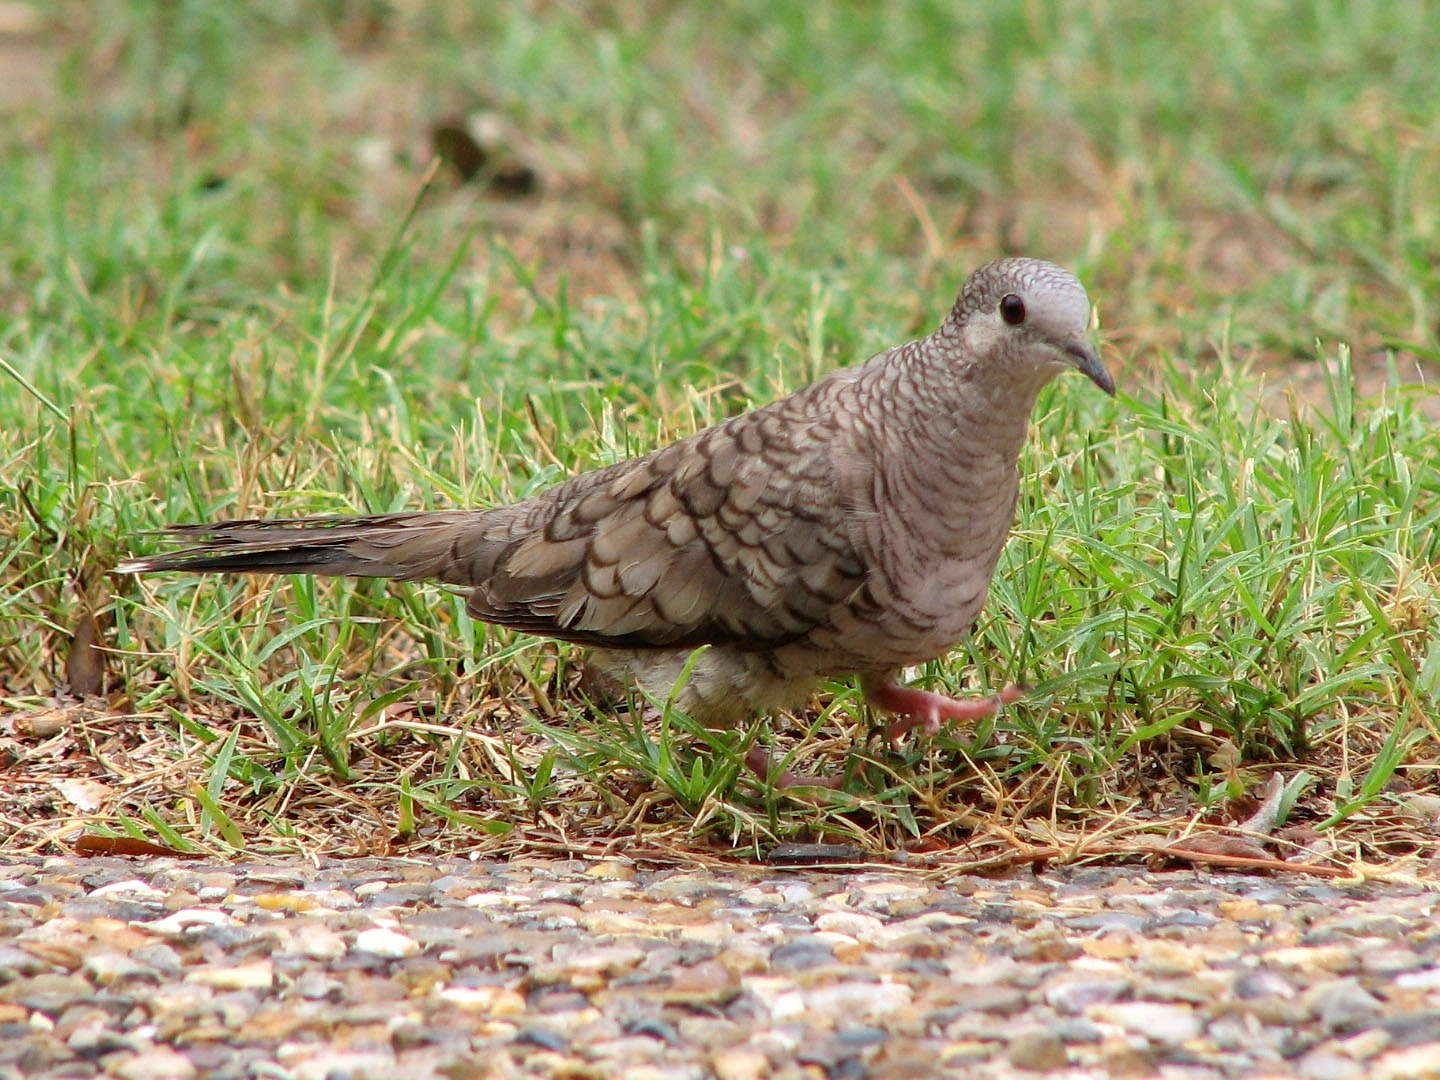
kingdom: Animalia
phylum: Chordata
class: Aves
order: Columbiformes
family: Columbidae
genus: Columbina
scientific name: Columbina inca
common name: Inca dove
